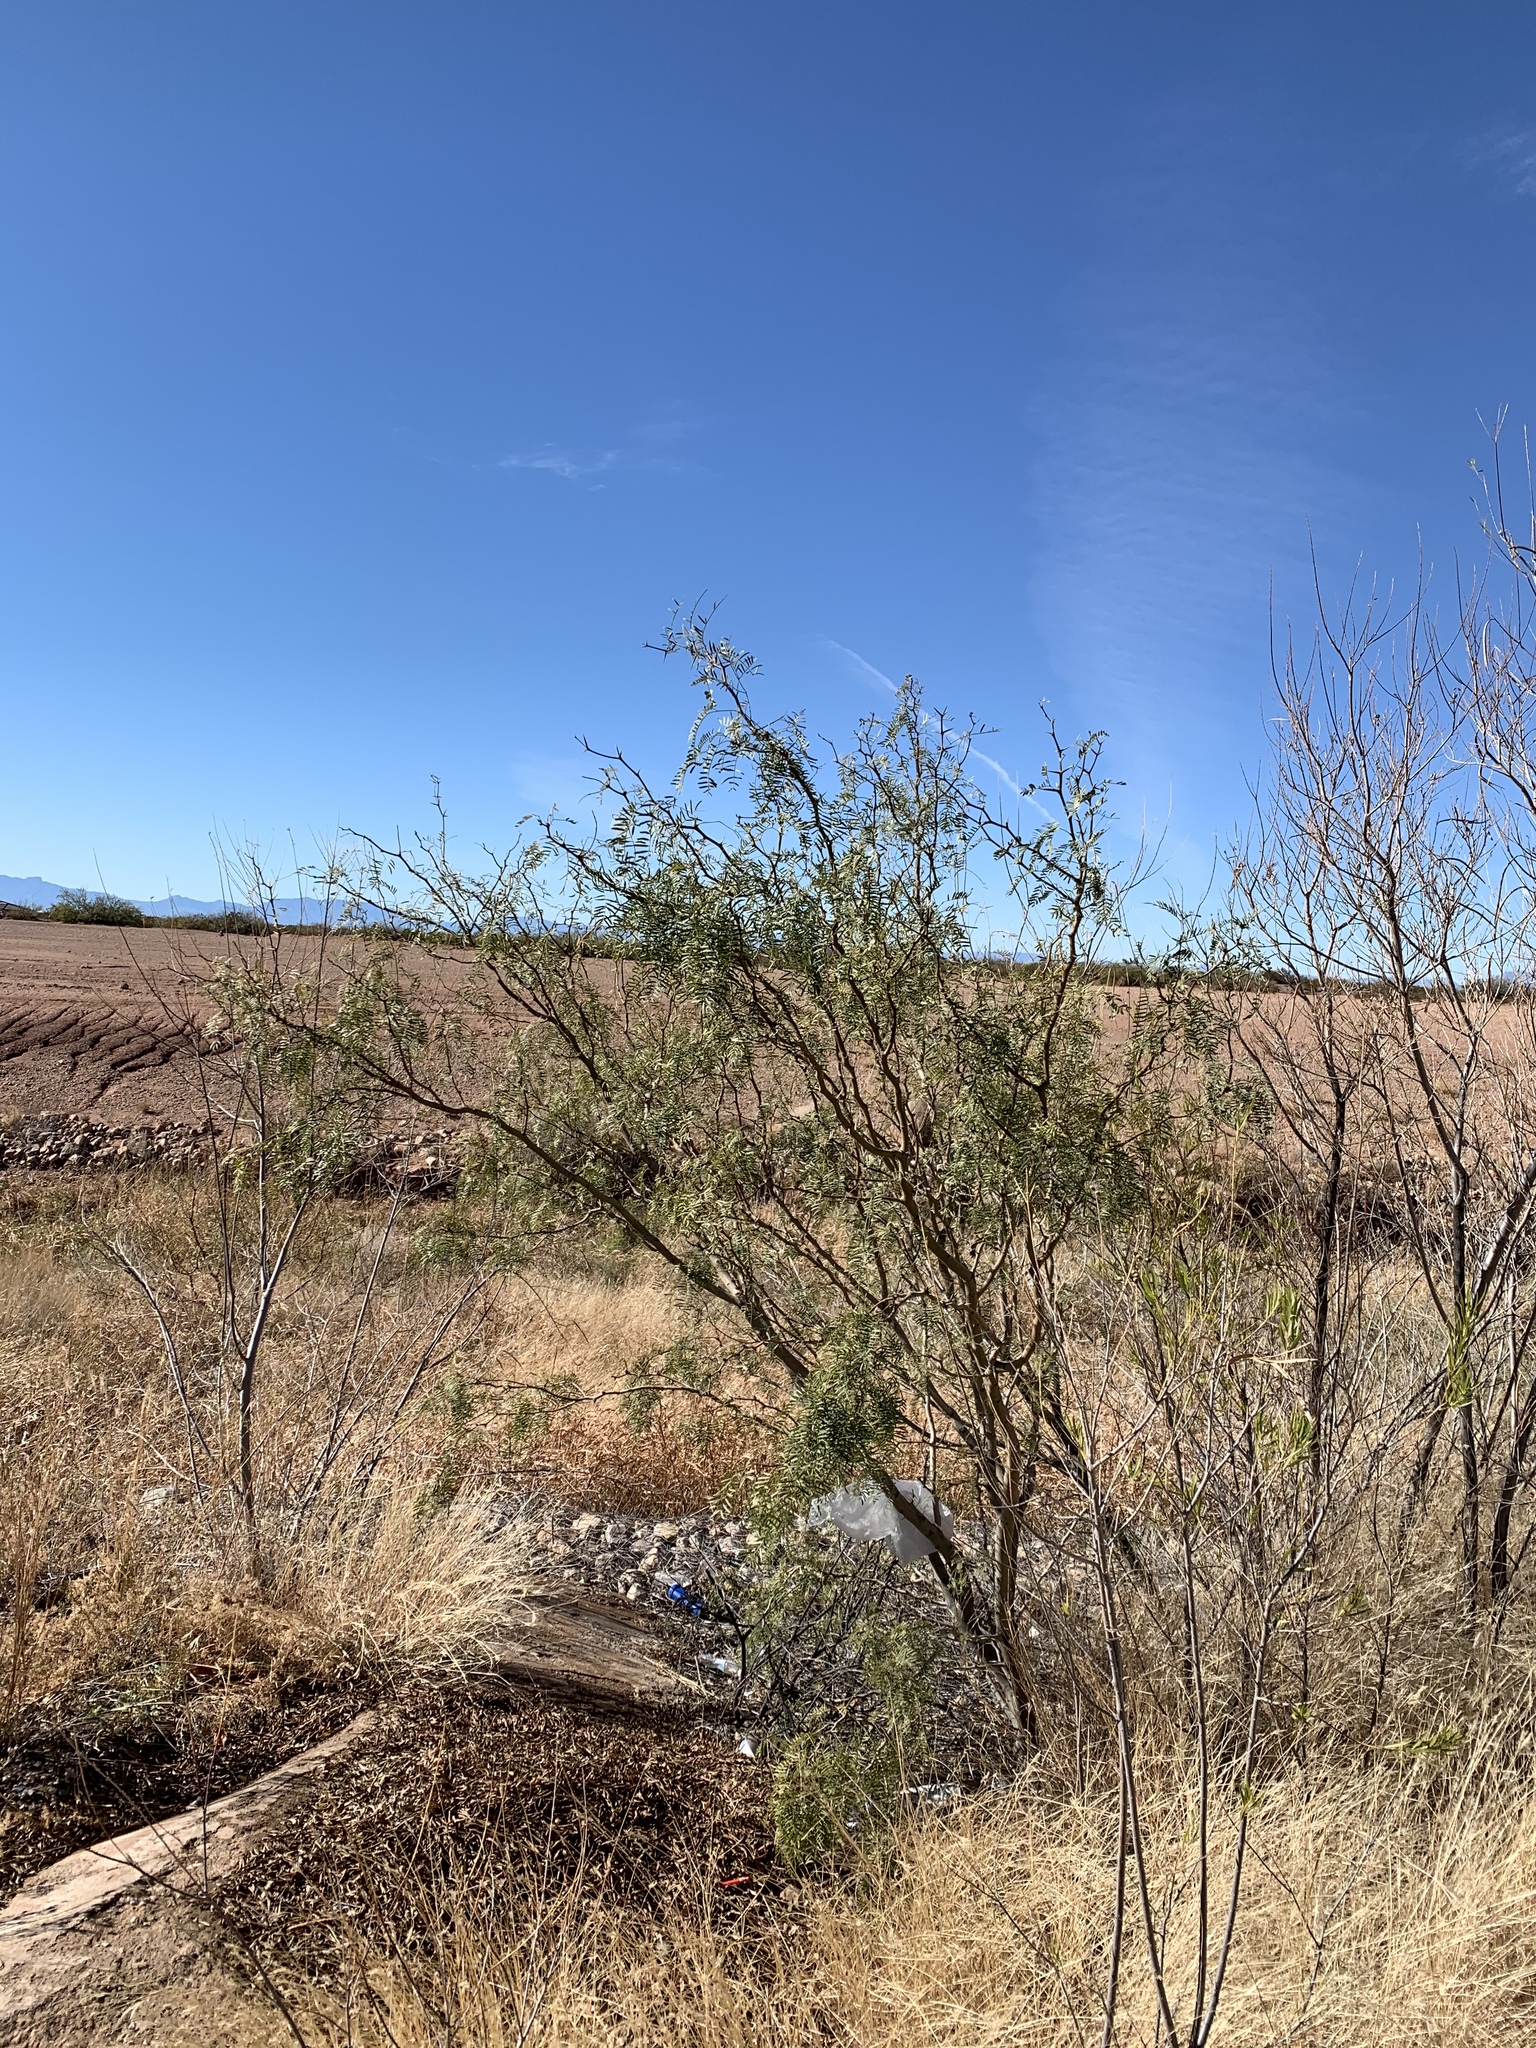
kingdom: Plantae
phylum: Tracheophyta
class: Magnoliopsida
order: Fabales
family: Fabaceae
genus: Prosopis
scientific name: Prosopis glandulosa
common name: Honey mesquite
